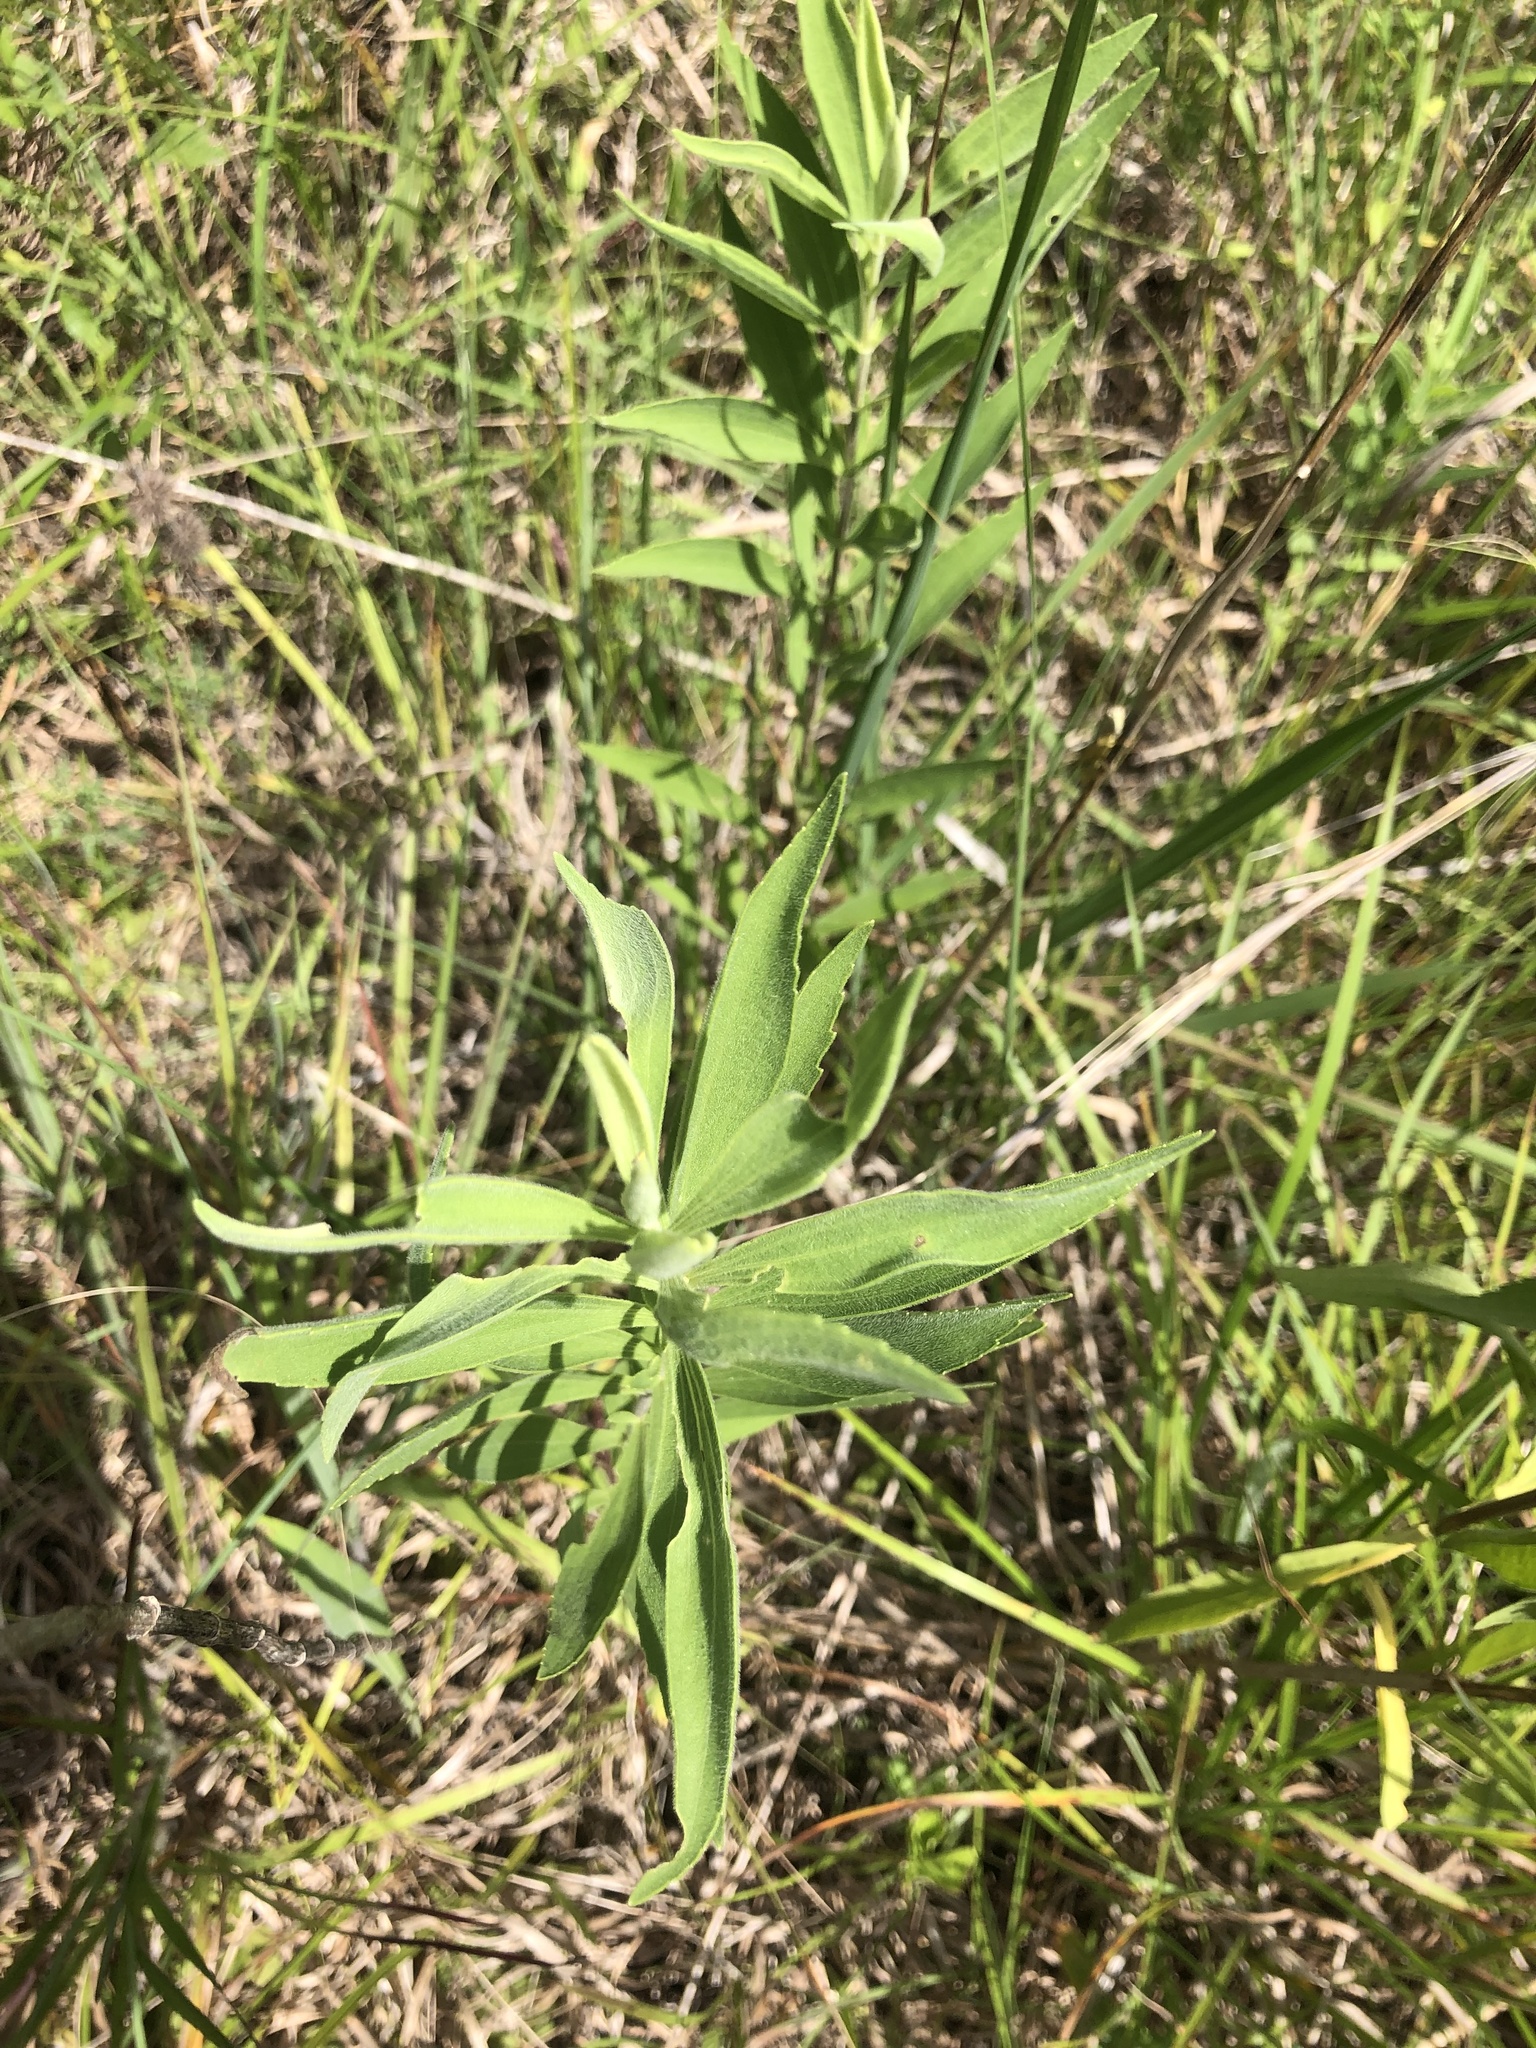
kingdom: Plantae
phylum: Tracheophyta
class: Magnoliopsida
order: Asterales
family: Asteraceae
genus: Eupatorium
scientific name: Eupatorium altissimum
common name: Tall thoroughwort
